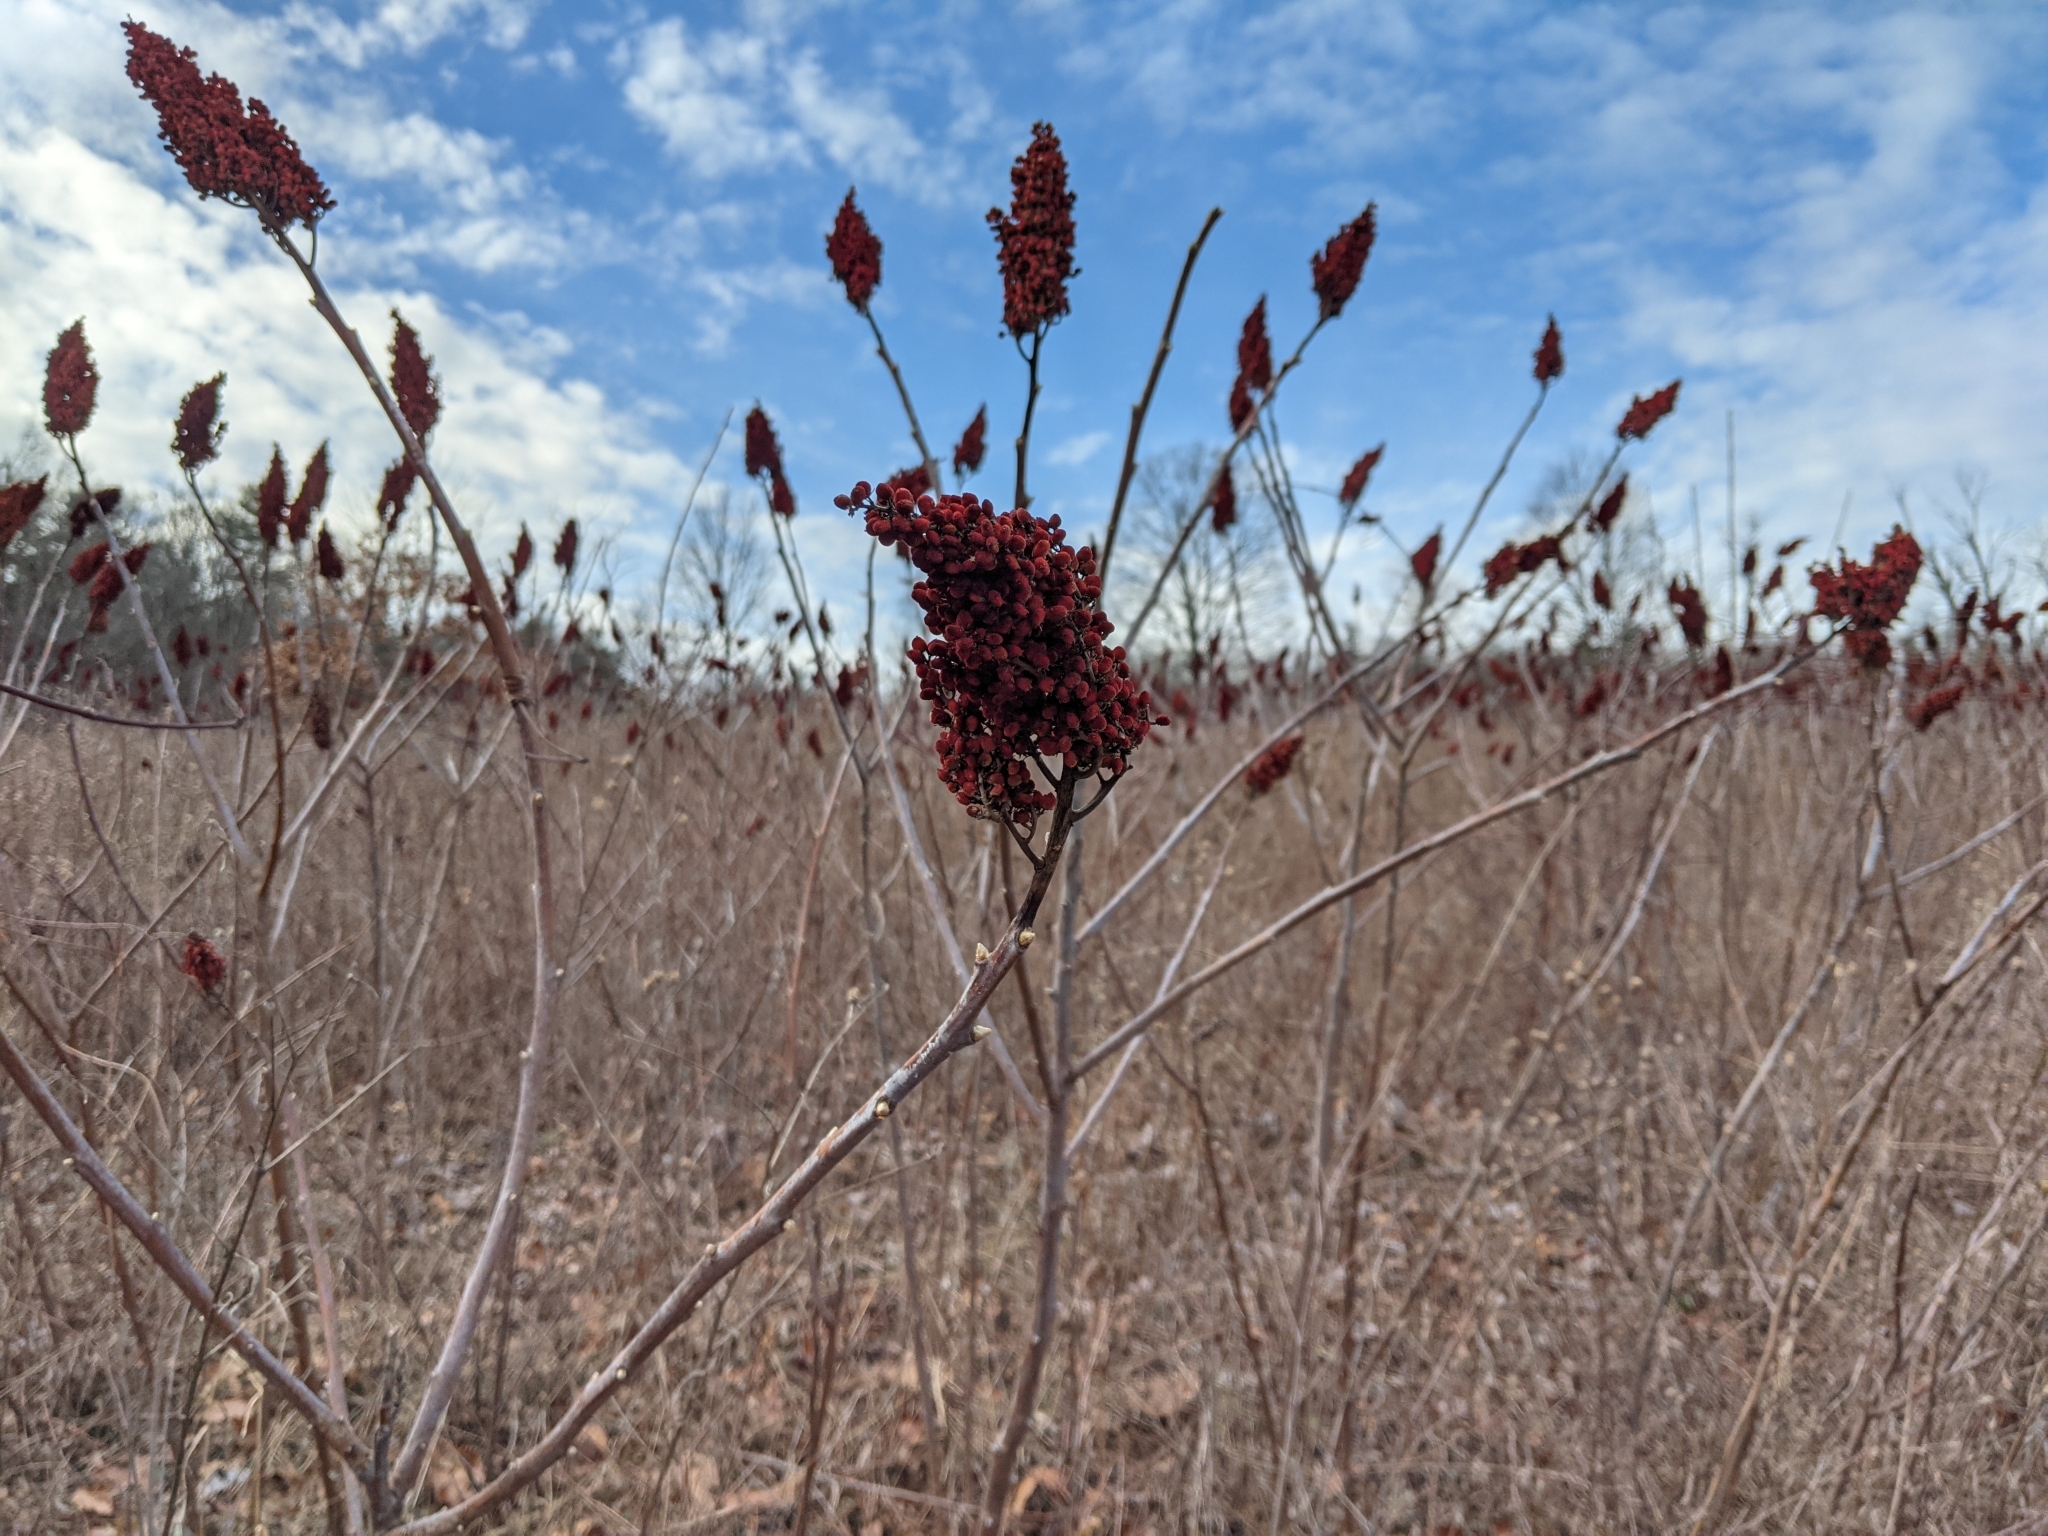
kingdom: Plantae
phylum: Tracheophyta
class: Magnoliopsida
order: Sapindales
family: Anacardiaceae
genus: Rhus
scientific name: Rhus glabra
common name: Scarlet sumac
